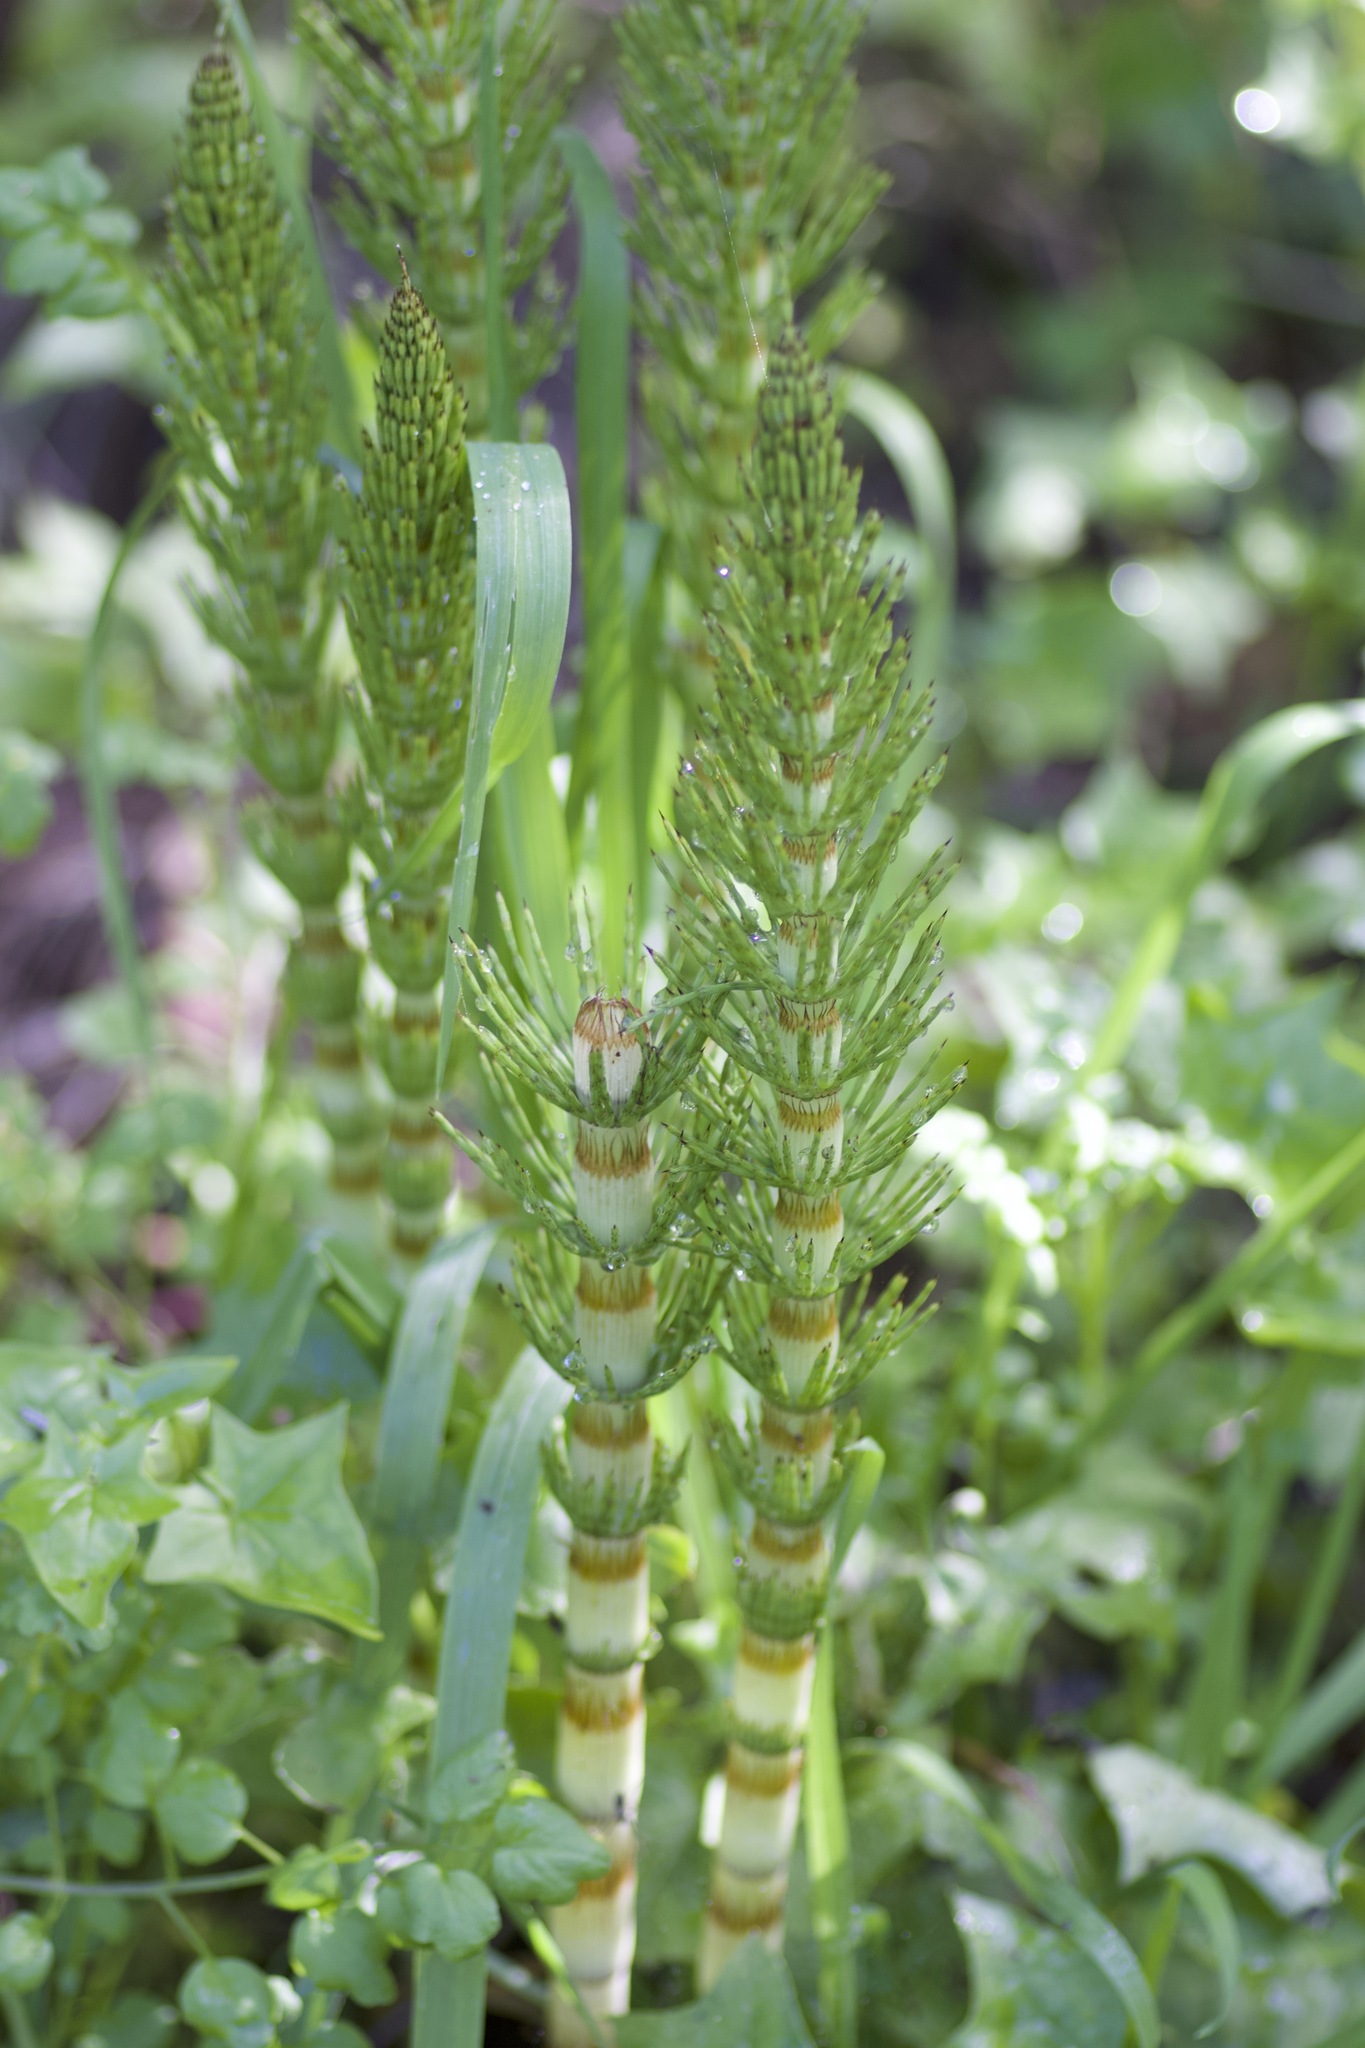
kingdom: Plantae
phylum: Tracheophyta
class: Polypodiopsida
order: Equisetales
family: Equisetaceae
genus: Equisetum
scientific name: Equisetum telmateia
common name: Great horsetail
